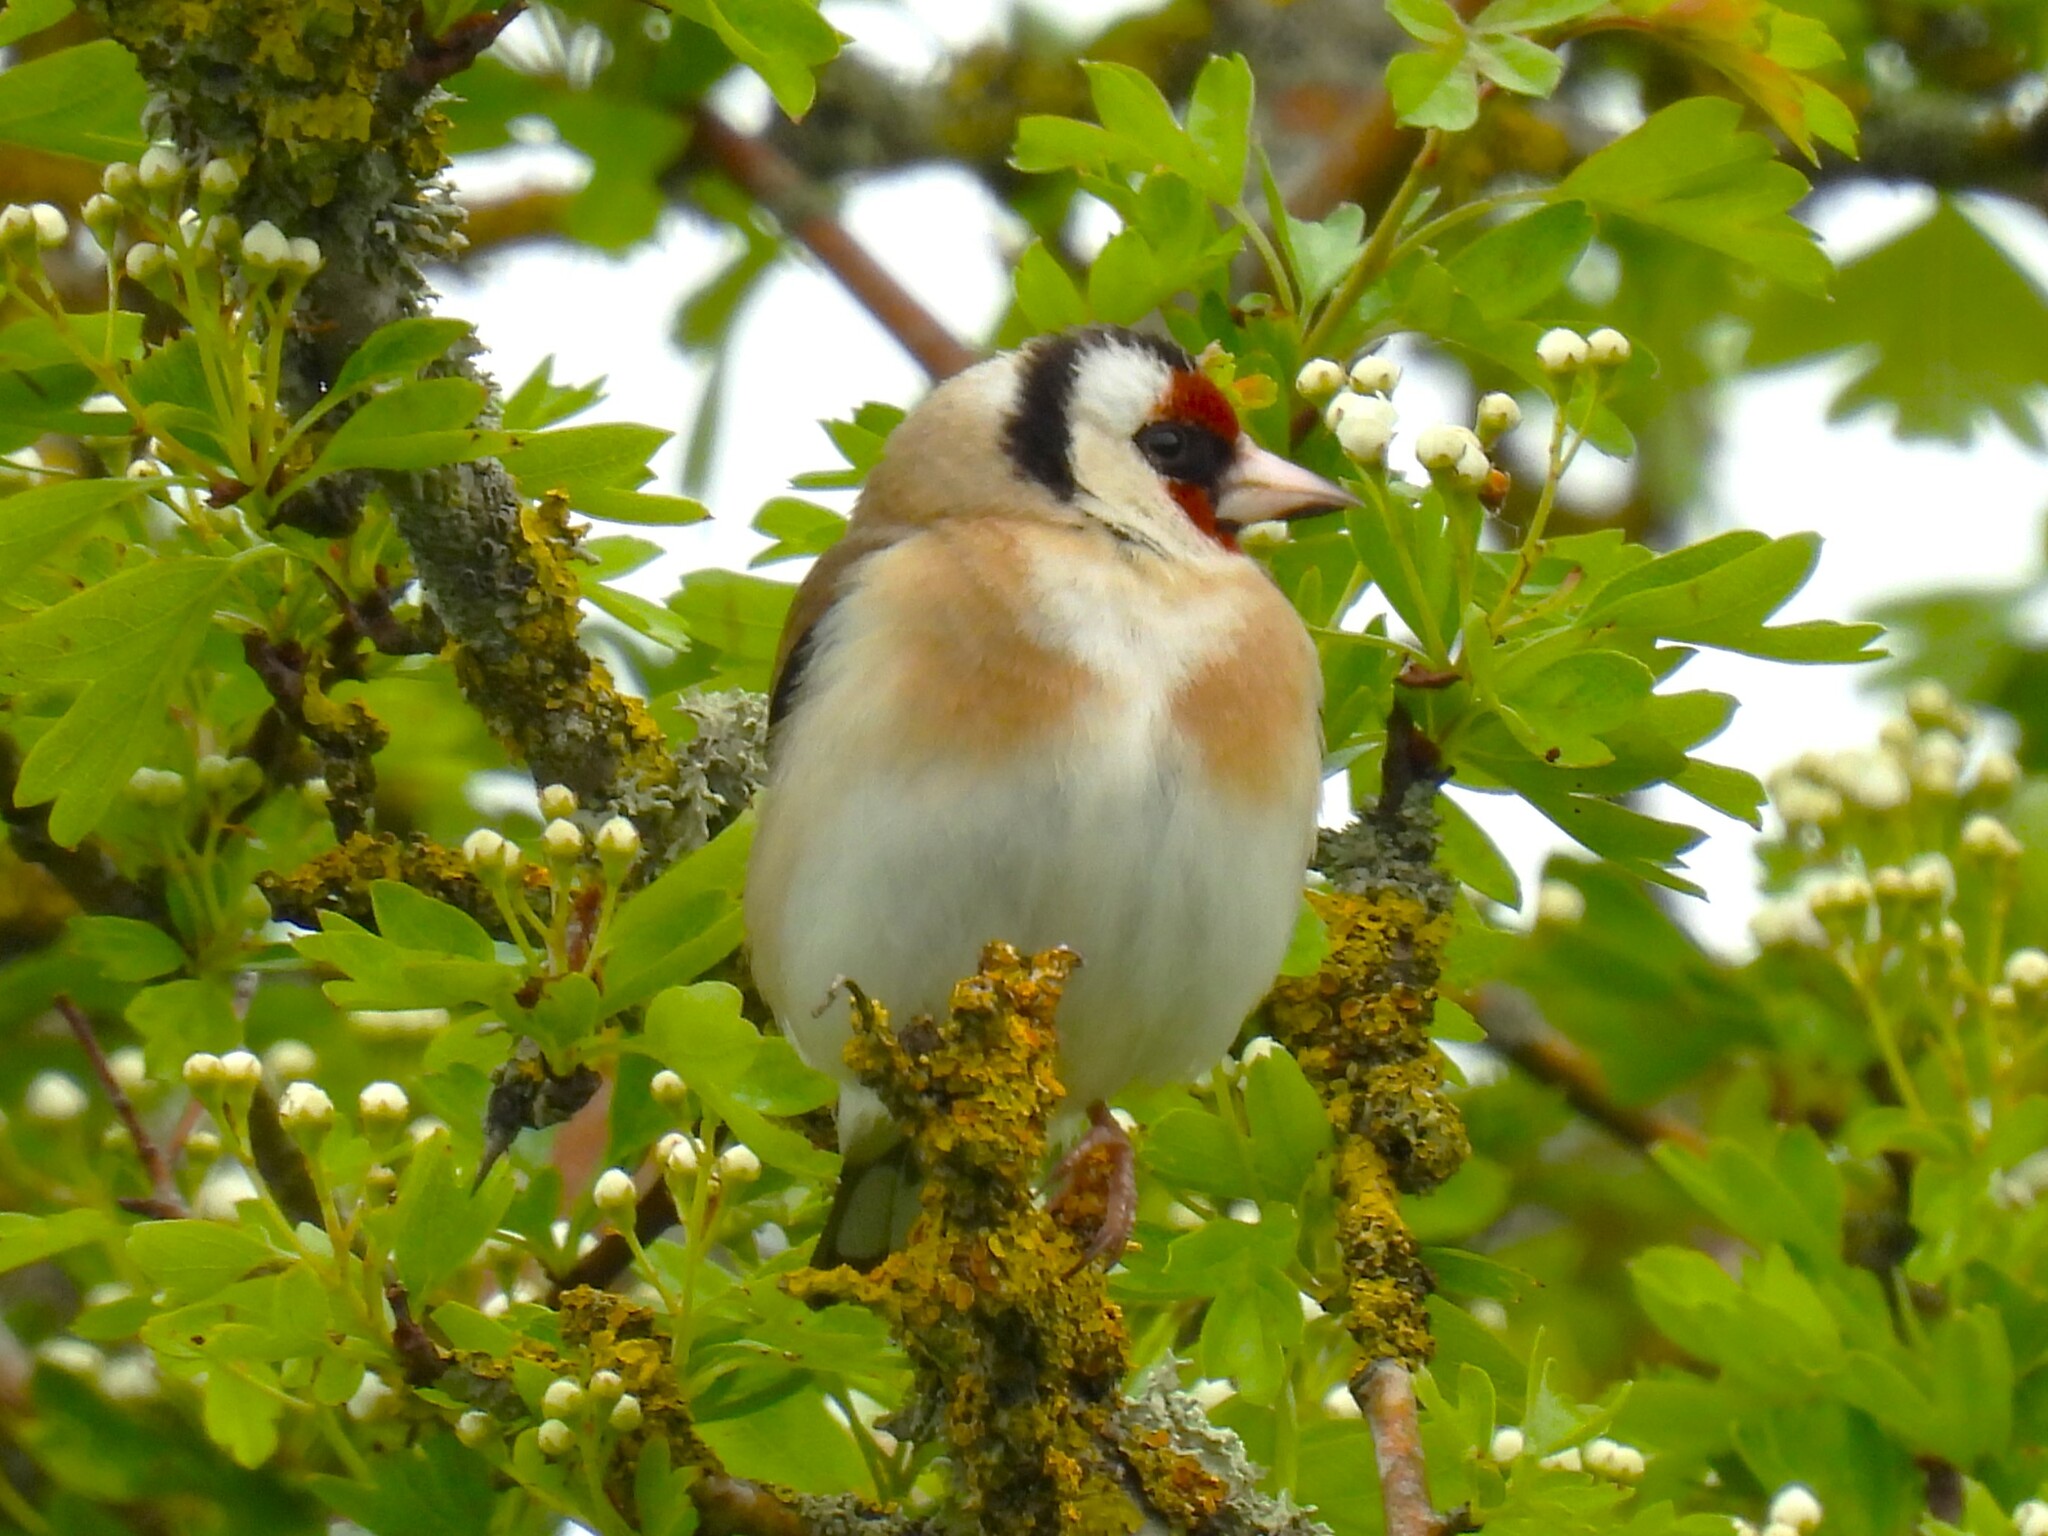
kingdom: Animalia
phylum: Chordata
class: Aves
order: Passeriformes
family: Fringillidae
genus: Carduelis
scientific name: Carduelis carduelis
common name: European goldfinch
